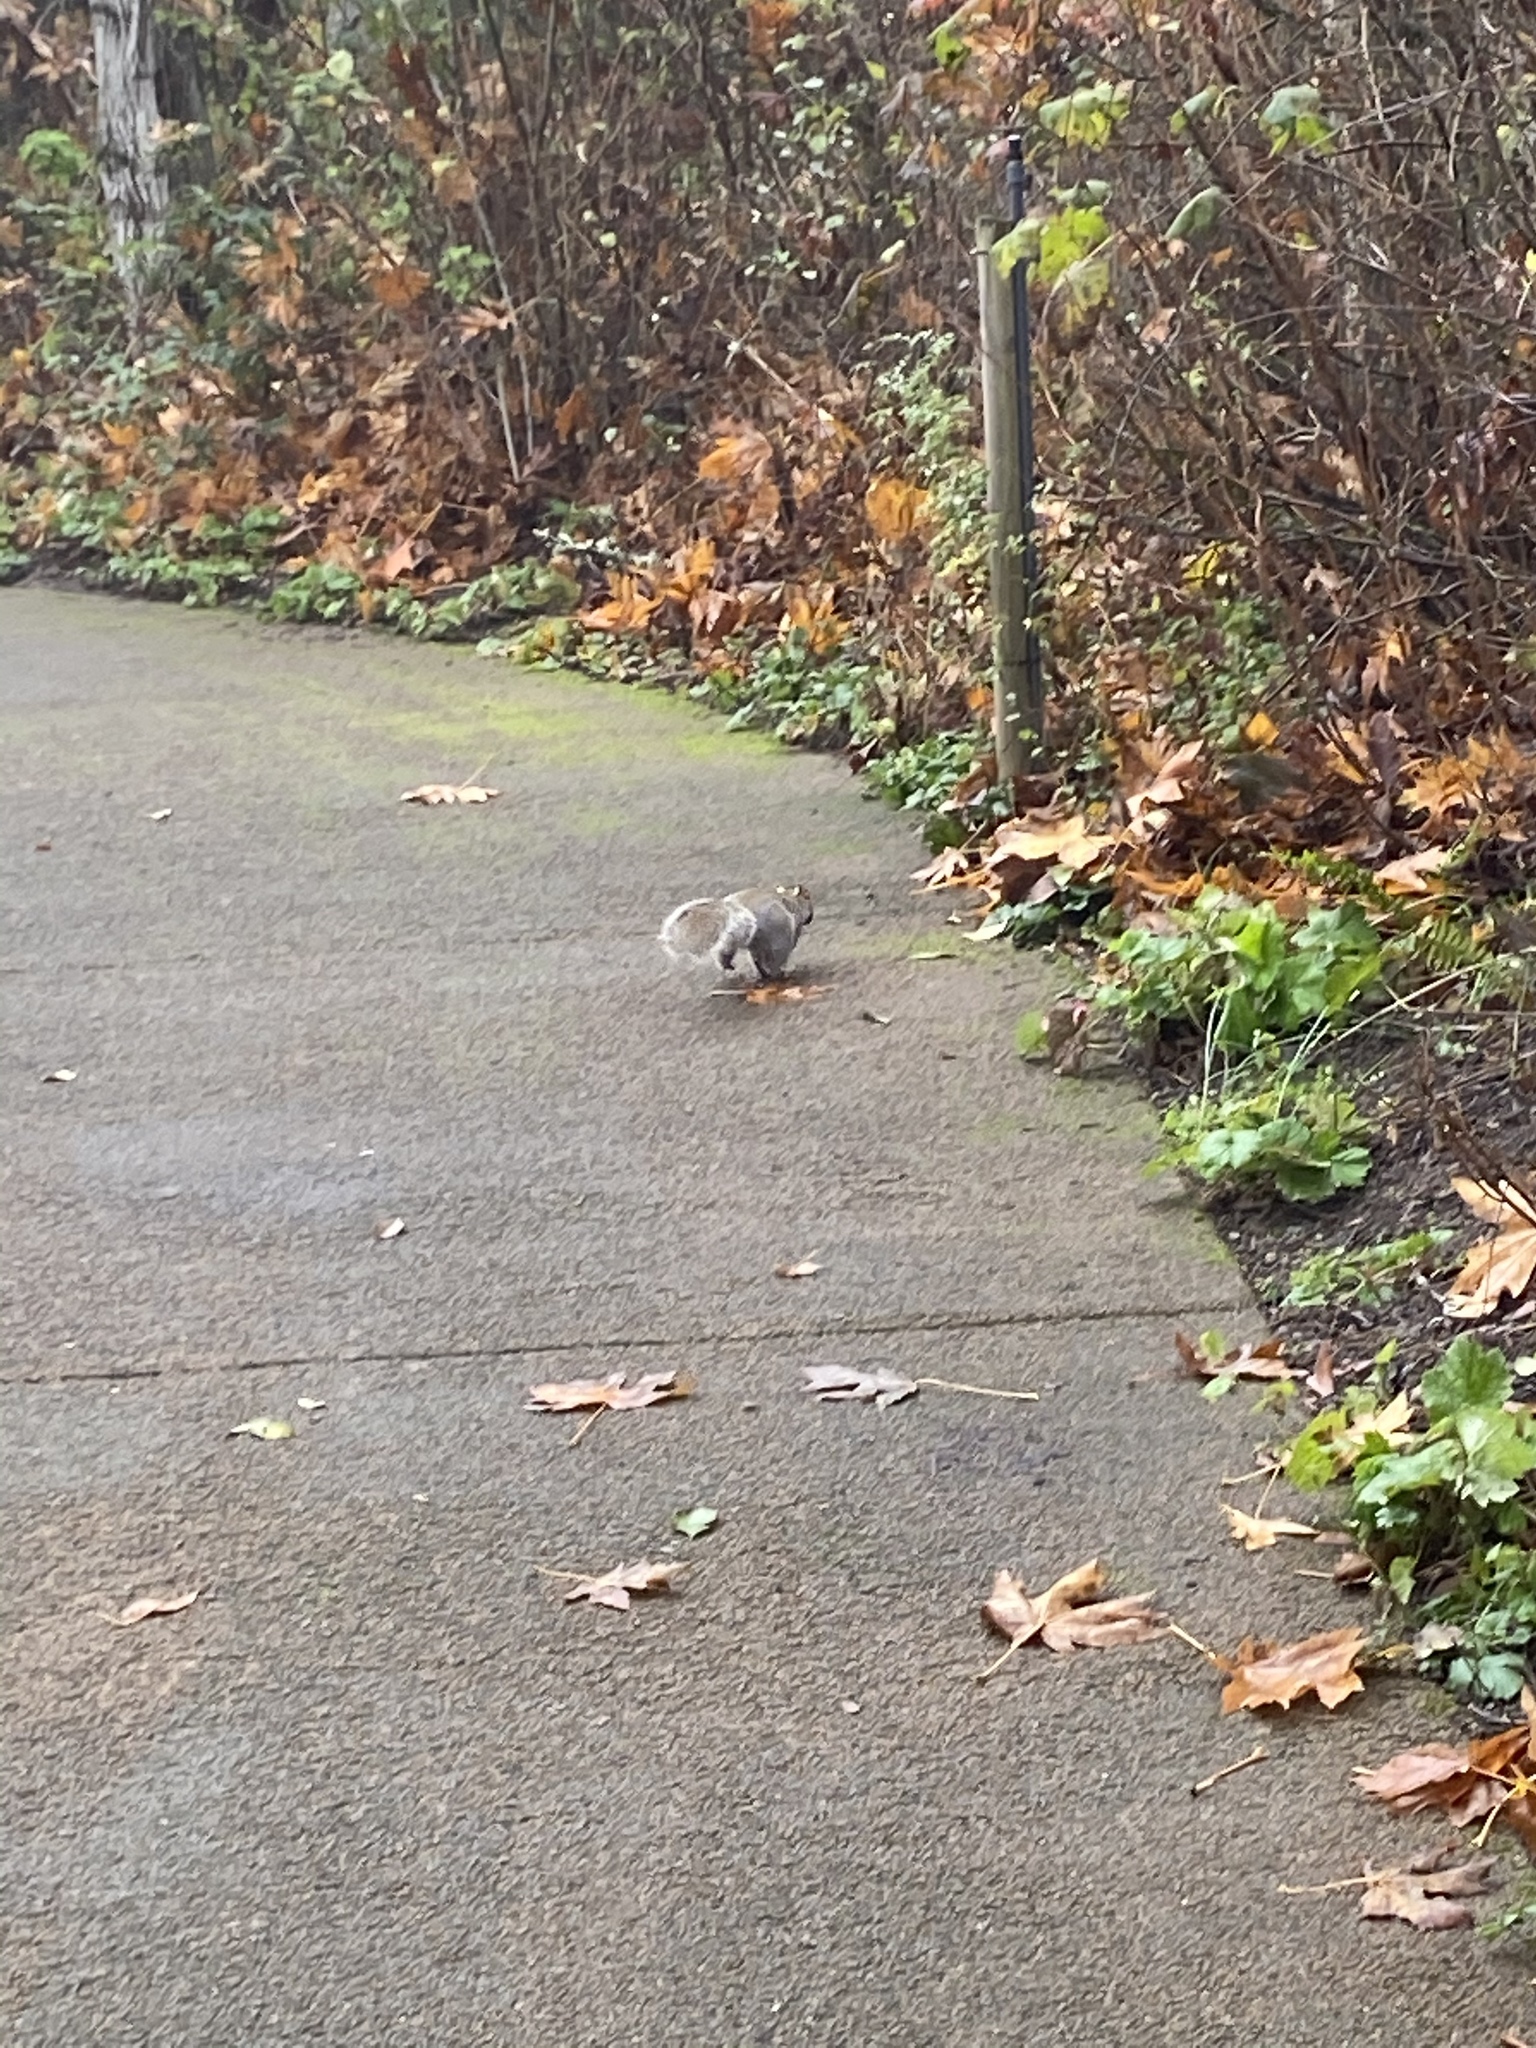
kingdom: Animalia
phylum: Chordata
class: Mammalia
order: Rodentia
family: Sciuridae
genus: Sciurus
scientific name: Sciurus carolinensis
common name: Eastern gray squirrel
